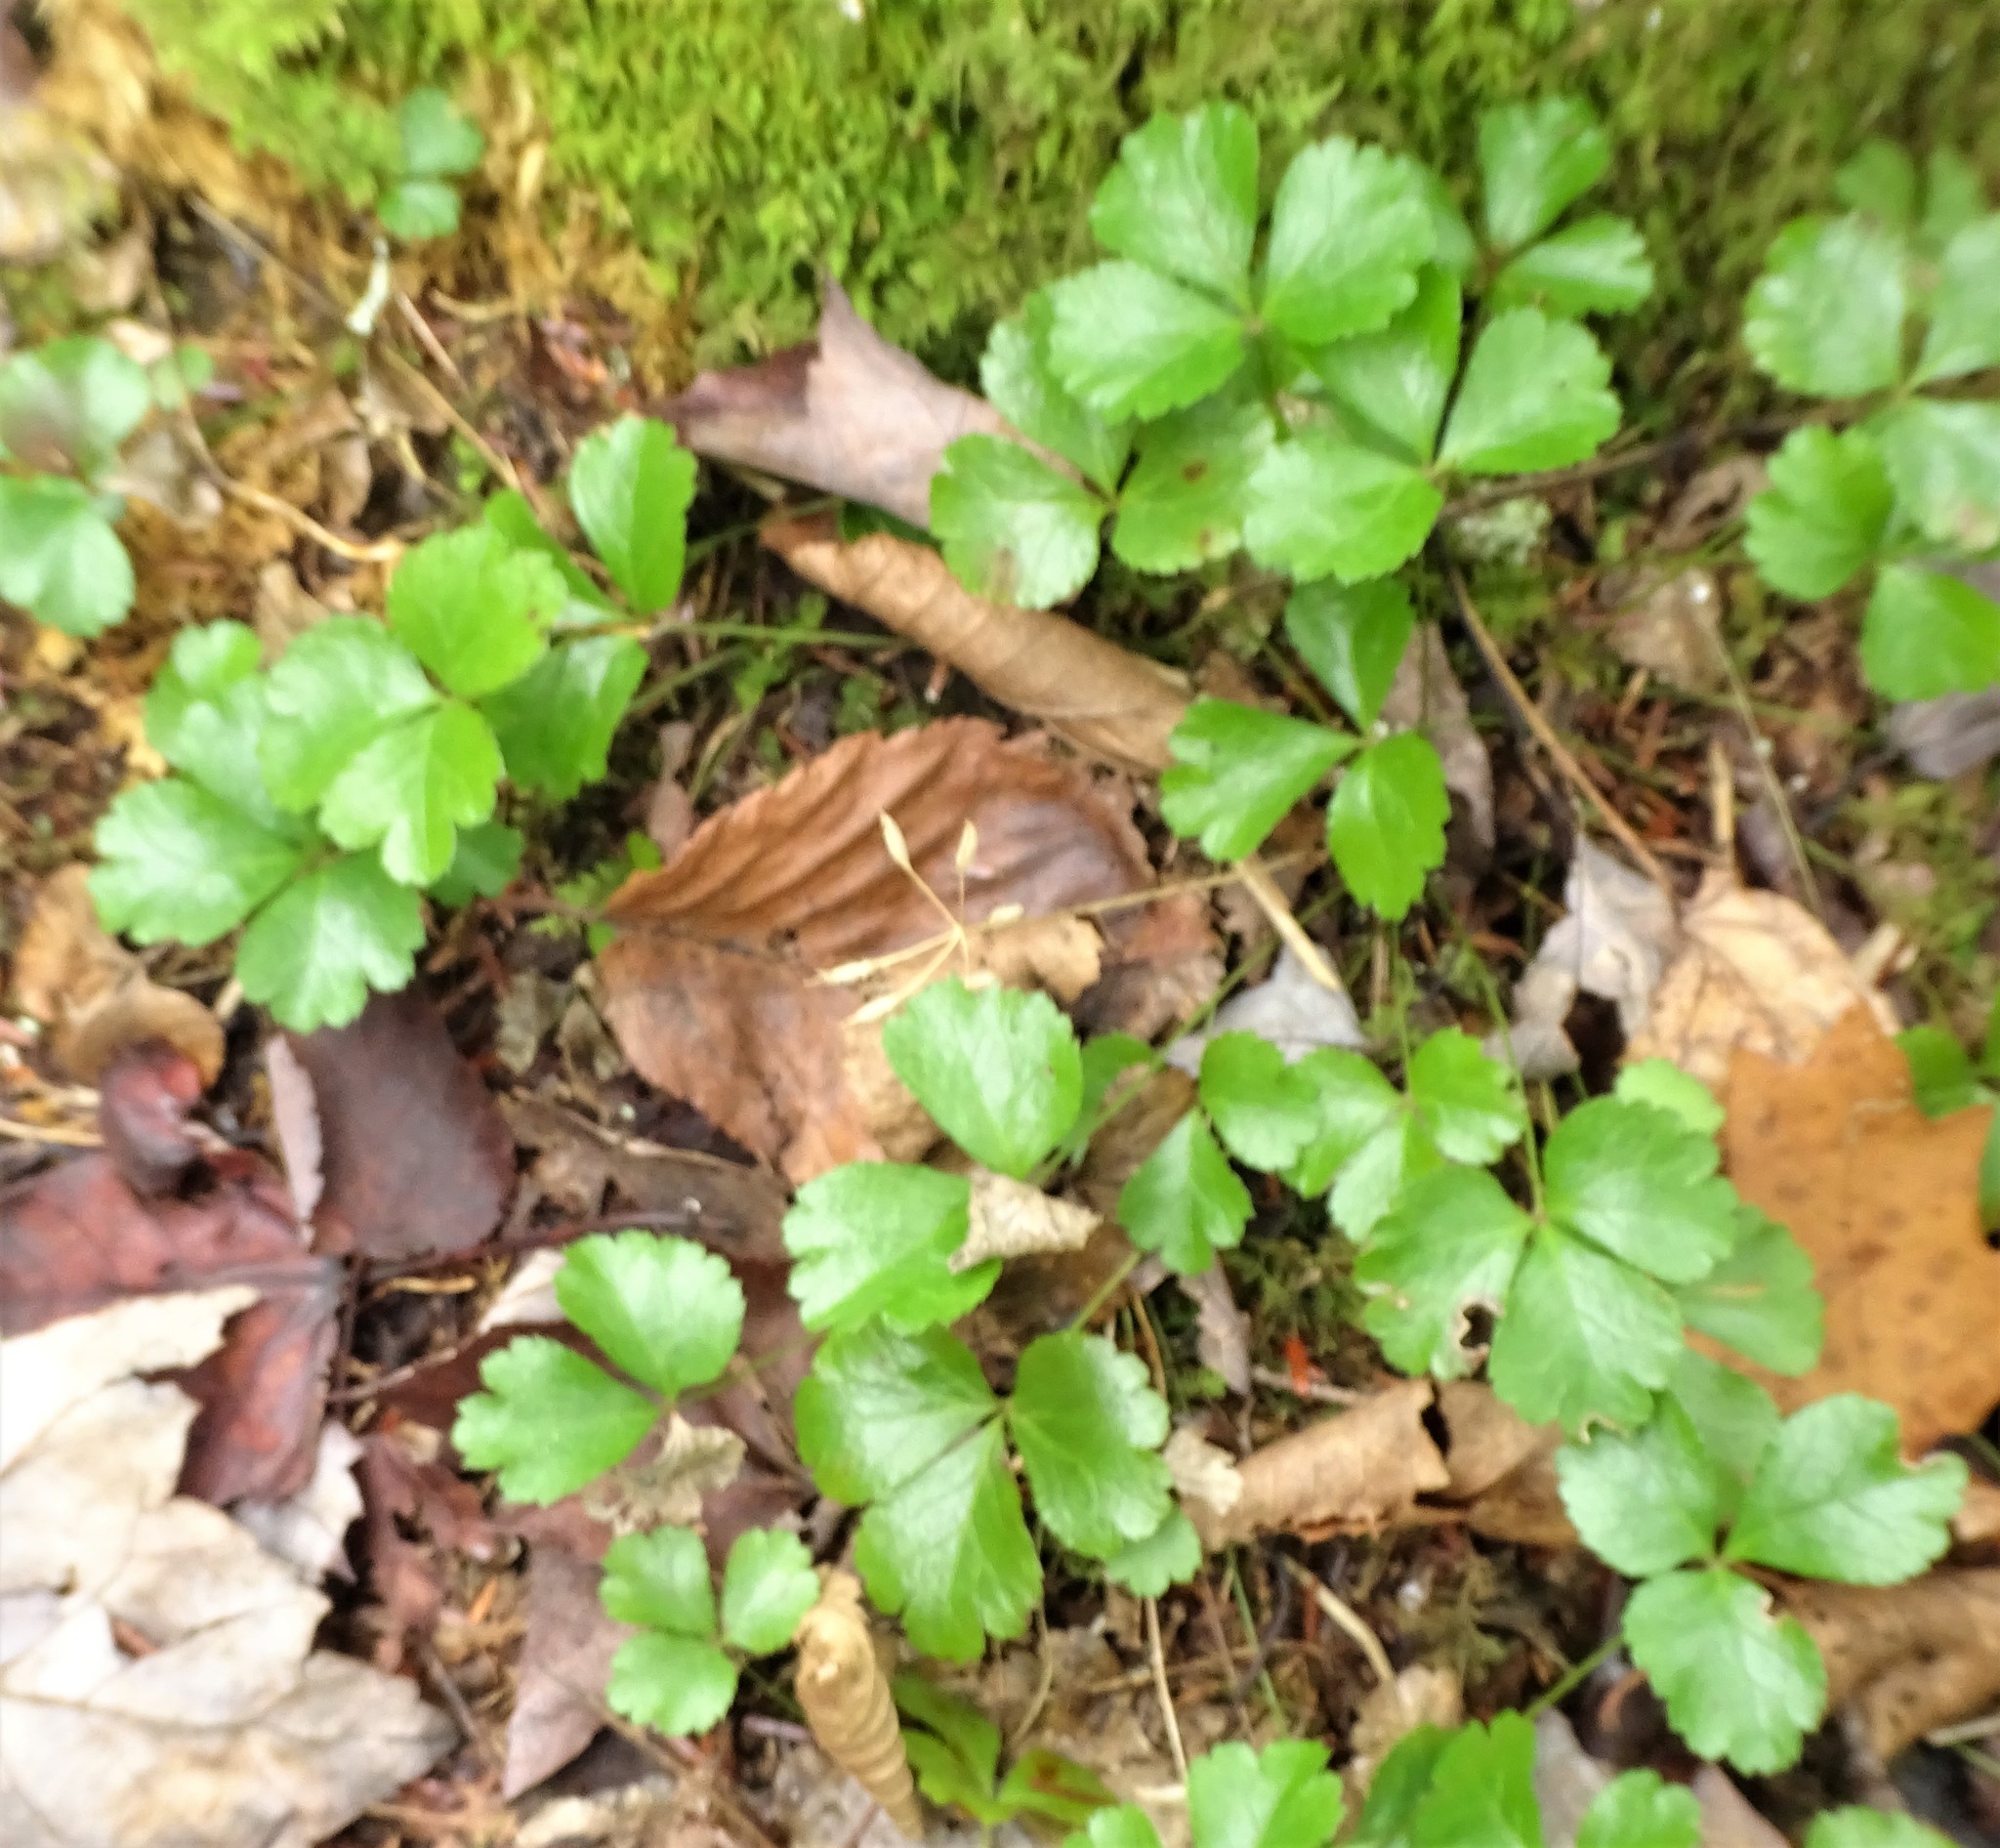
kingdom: Plantae
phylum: Tracheophyta
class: Magnoliopsida
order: Ranunculales
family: Ranunculaceae
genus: Coptis
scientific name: Coptis trifolia
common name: Canker-root
